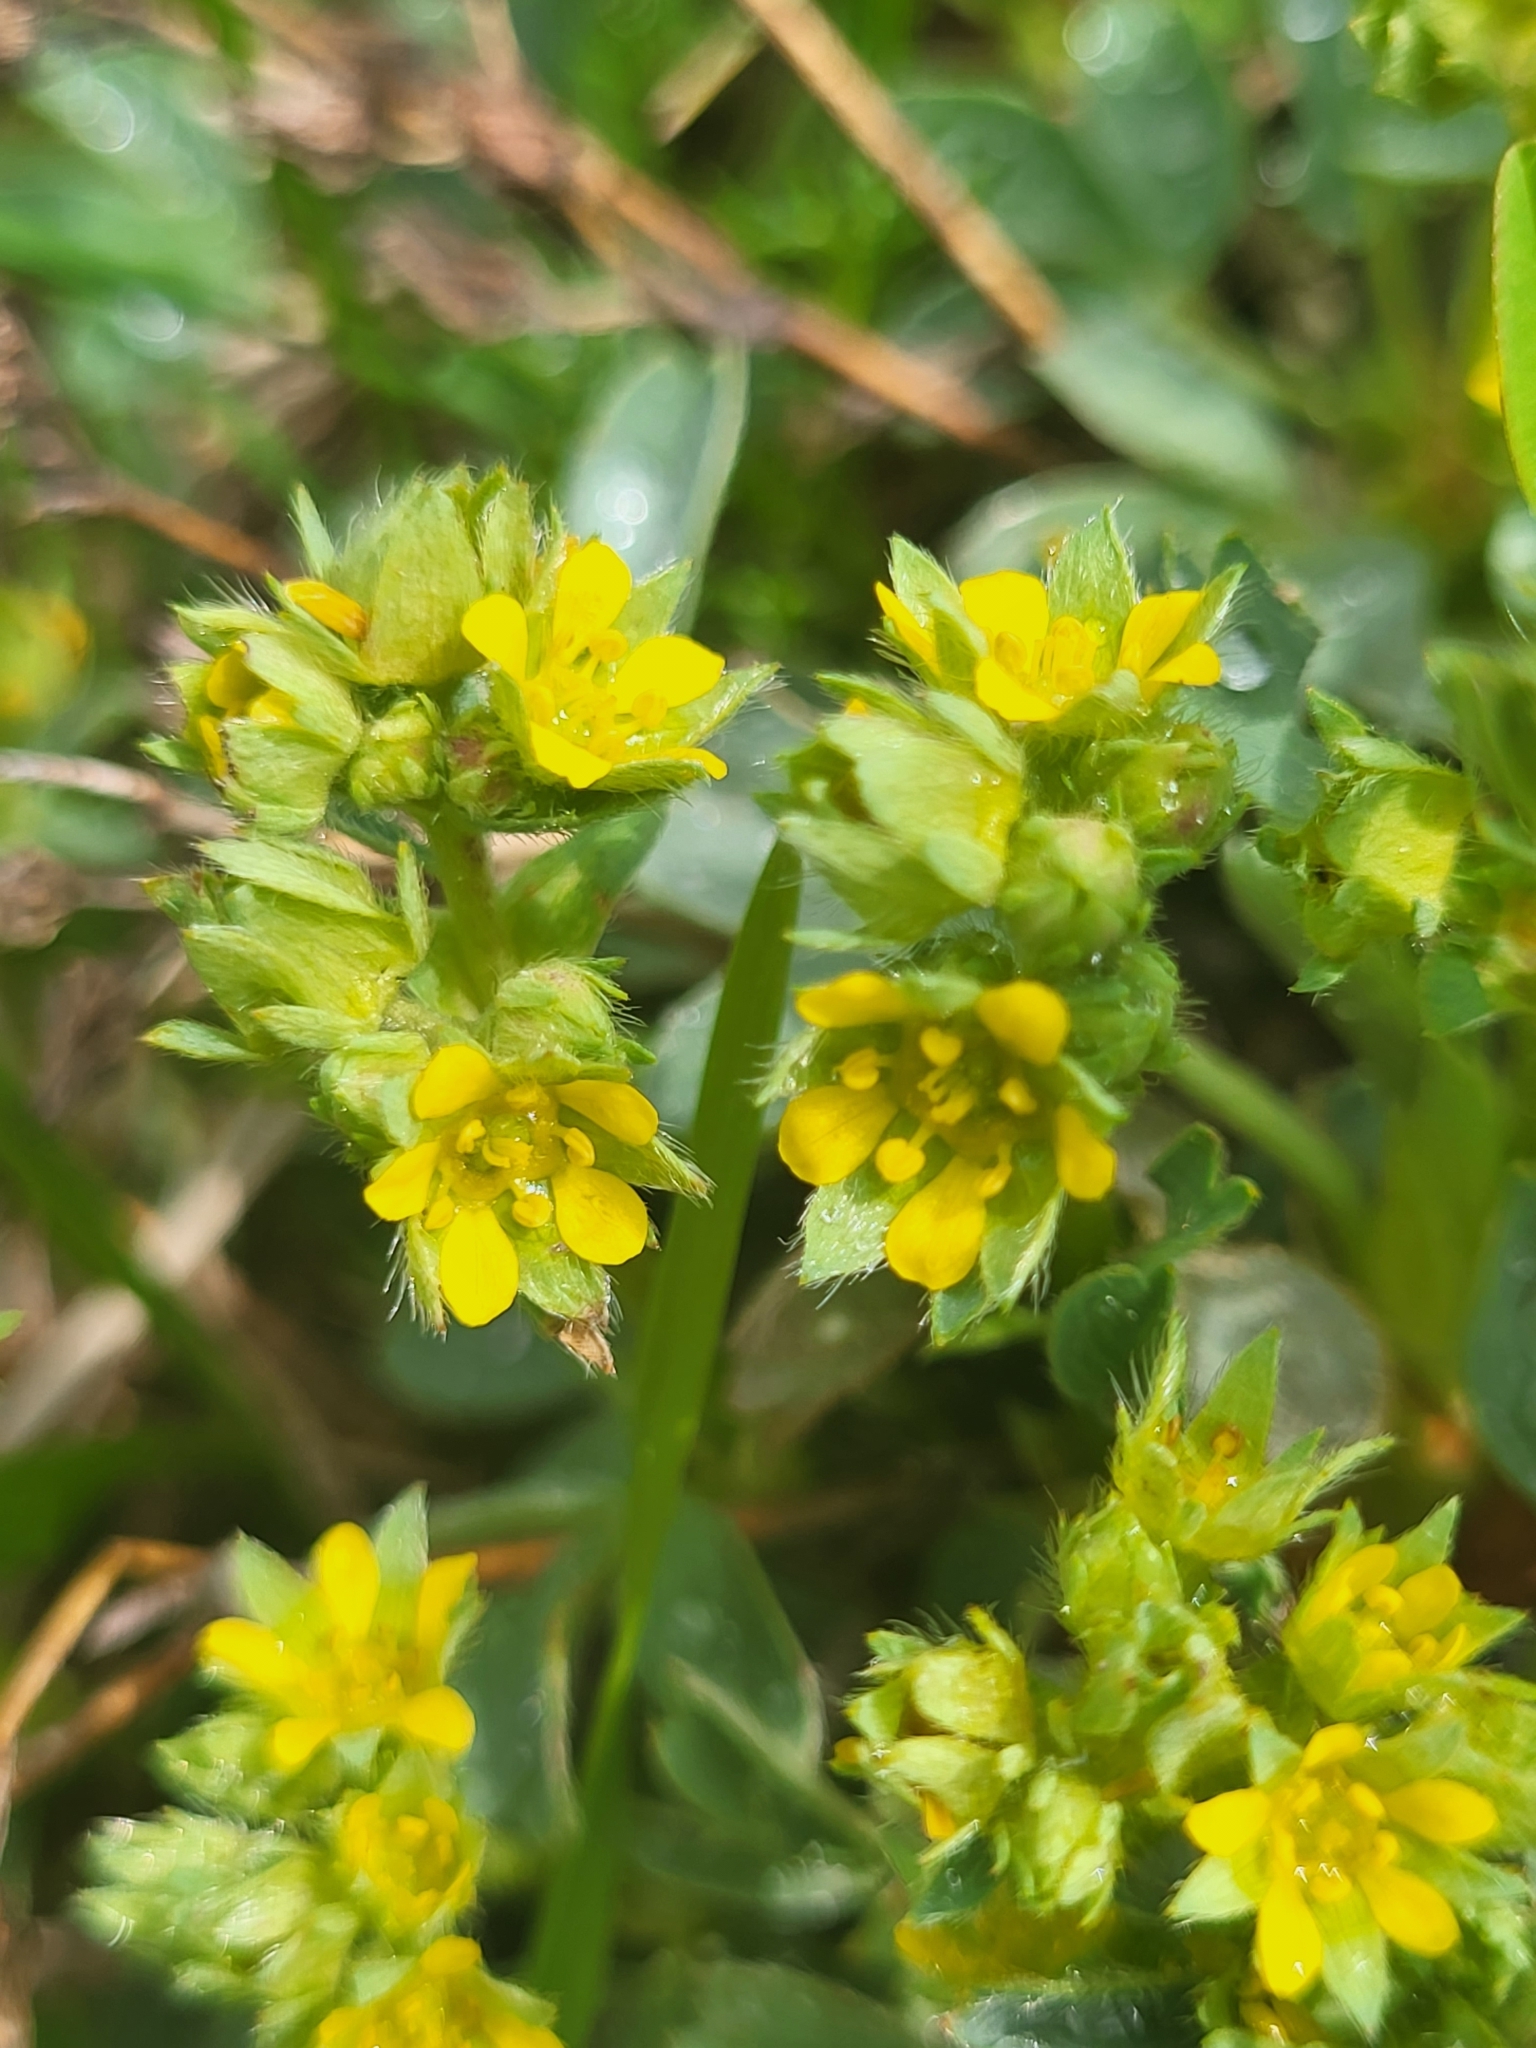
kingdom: Plantae
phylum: Tracheophyta
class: Magnoliopsida
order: Rosales
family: Rosaceae
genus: Sibbaldia
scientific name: Sibbaldia parviflora
